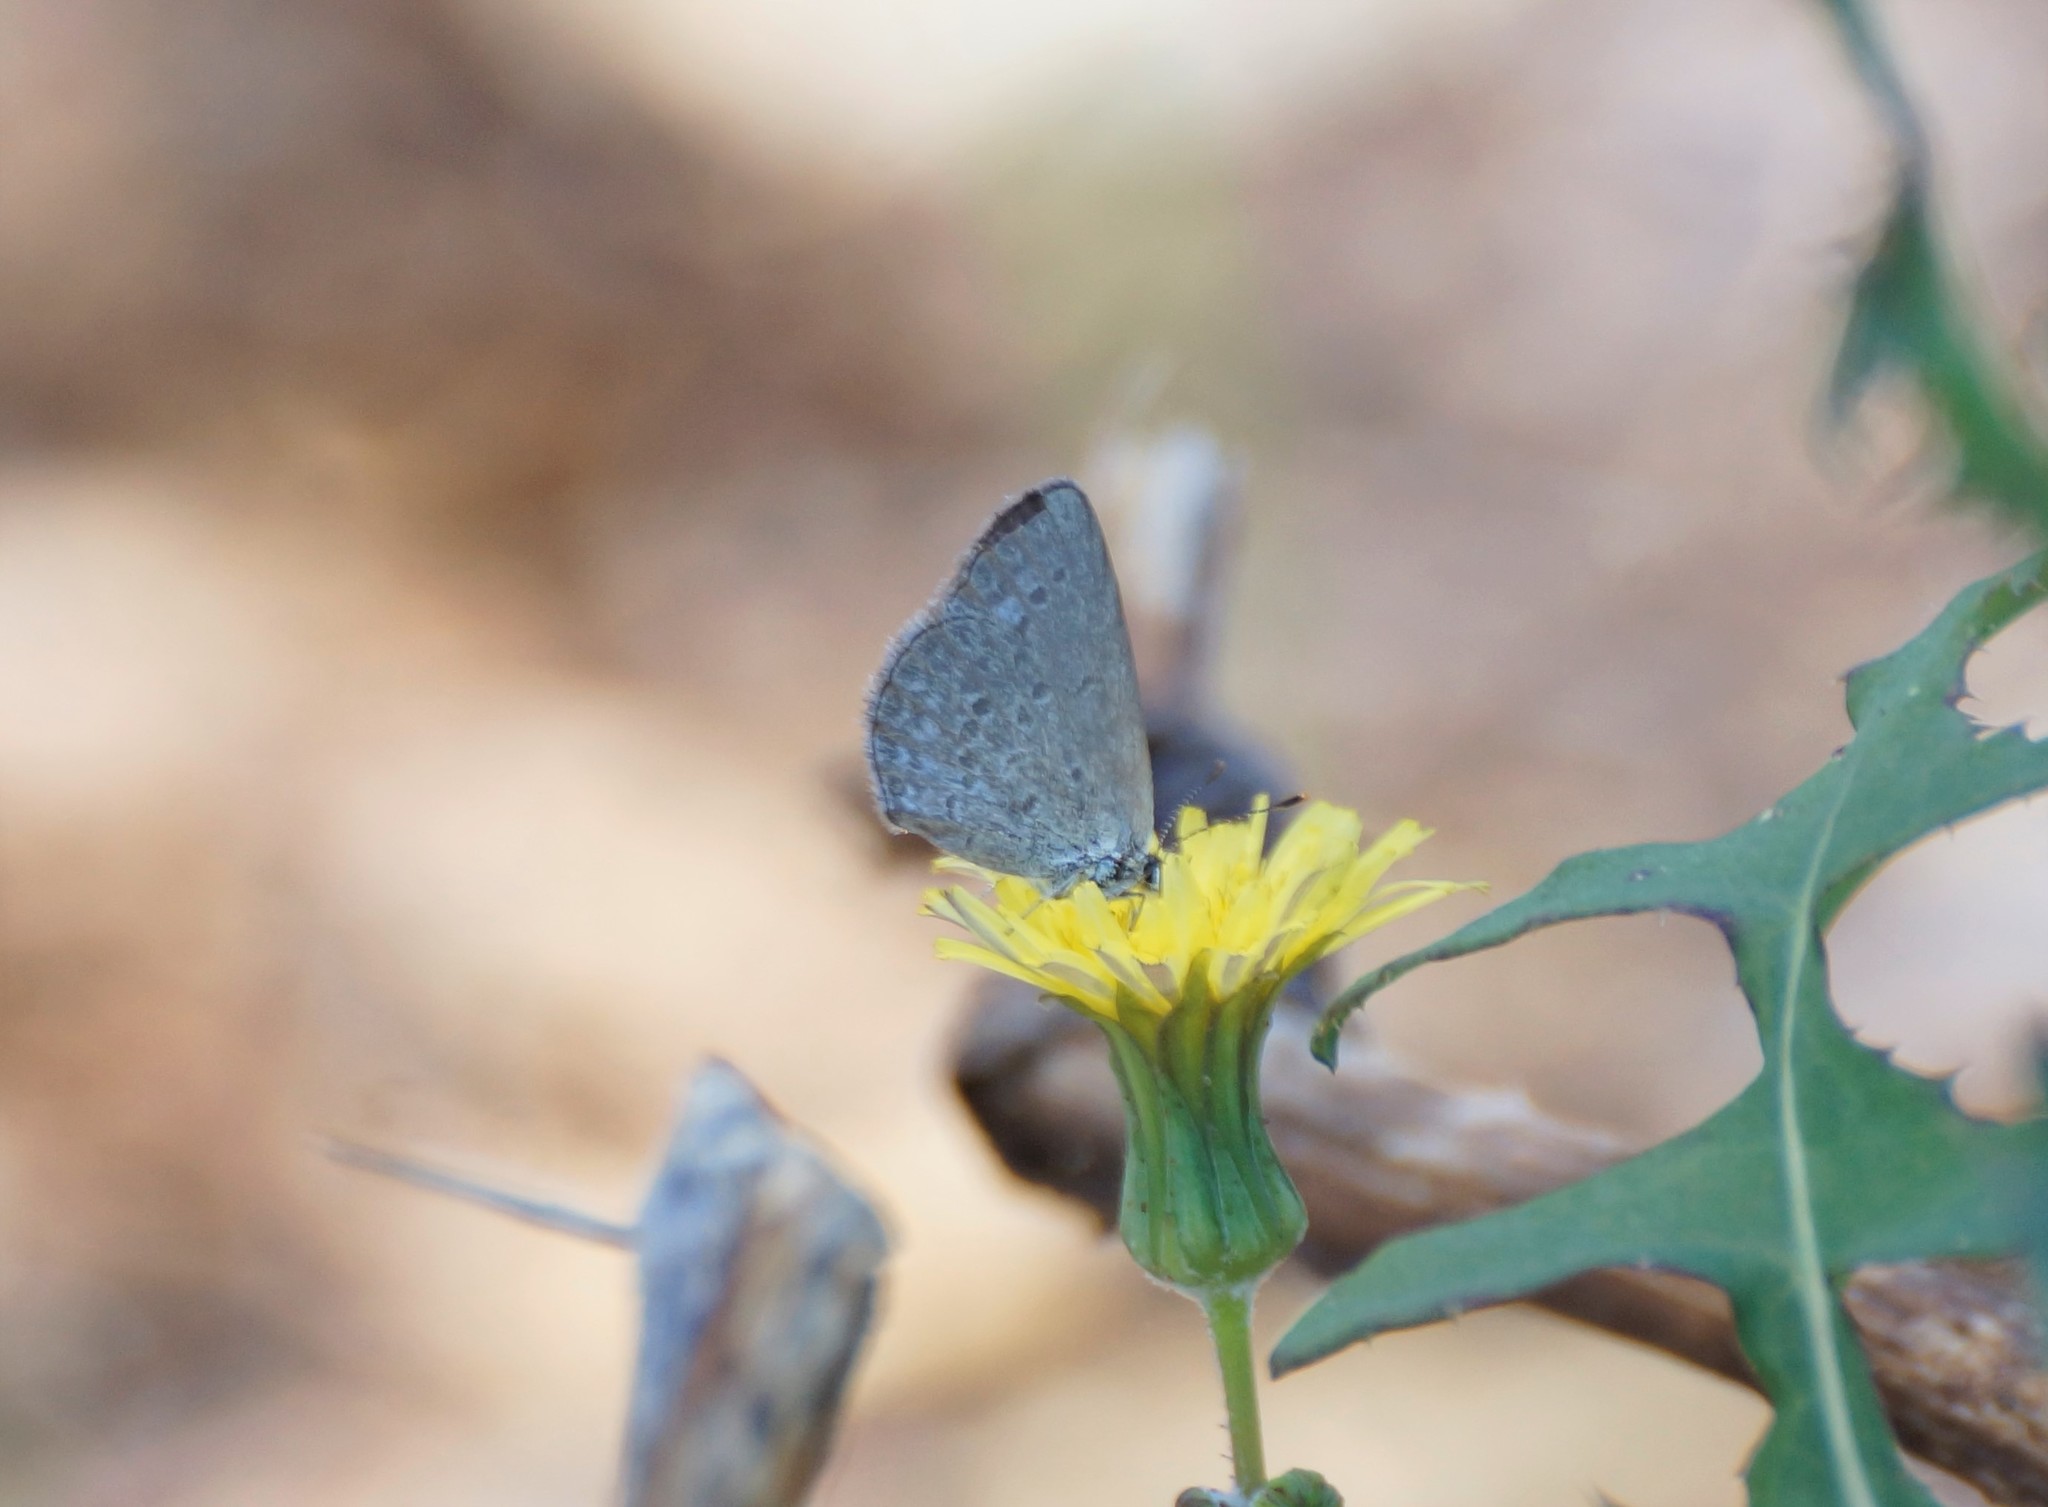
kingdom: Animalia
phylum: Arthropoda
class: Insecta
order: Lepidoptera
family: Lycaenidae
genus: Zizina
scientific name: Zizina labradus
